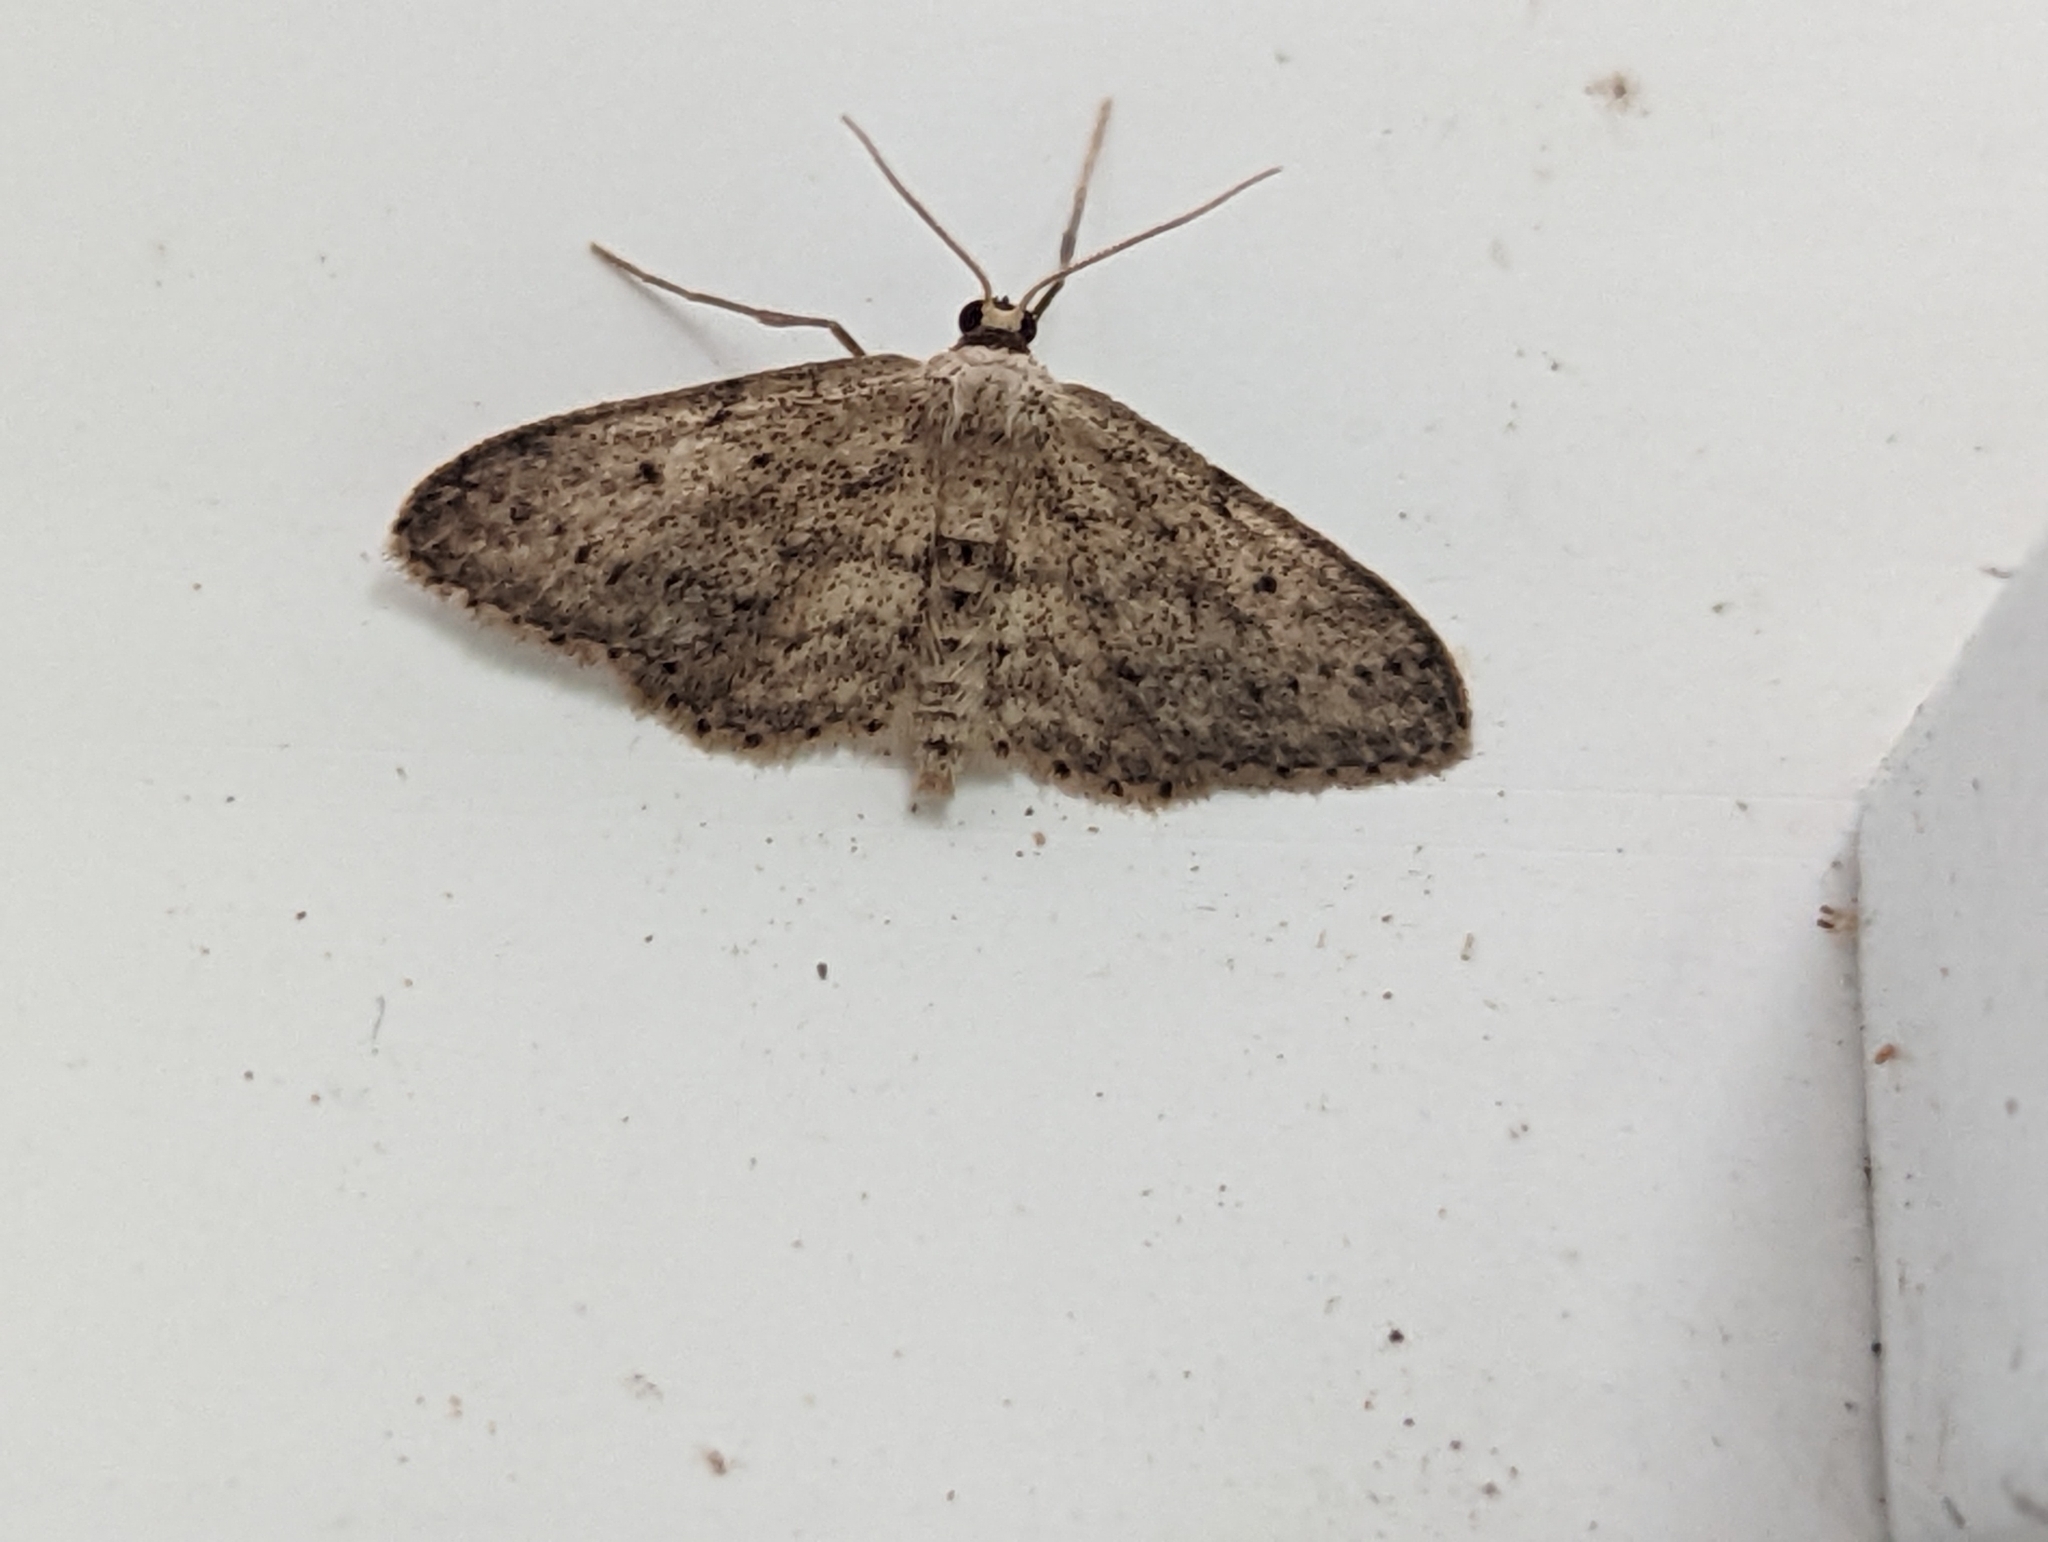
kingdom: Animalia
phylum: Arthropoda
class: Insecta
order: Lepidoptera
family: Geometridae
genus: Idaea
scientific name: Idaea seriata
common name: Small dusty wave
